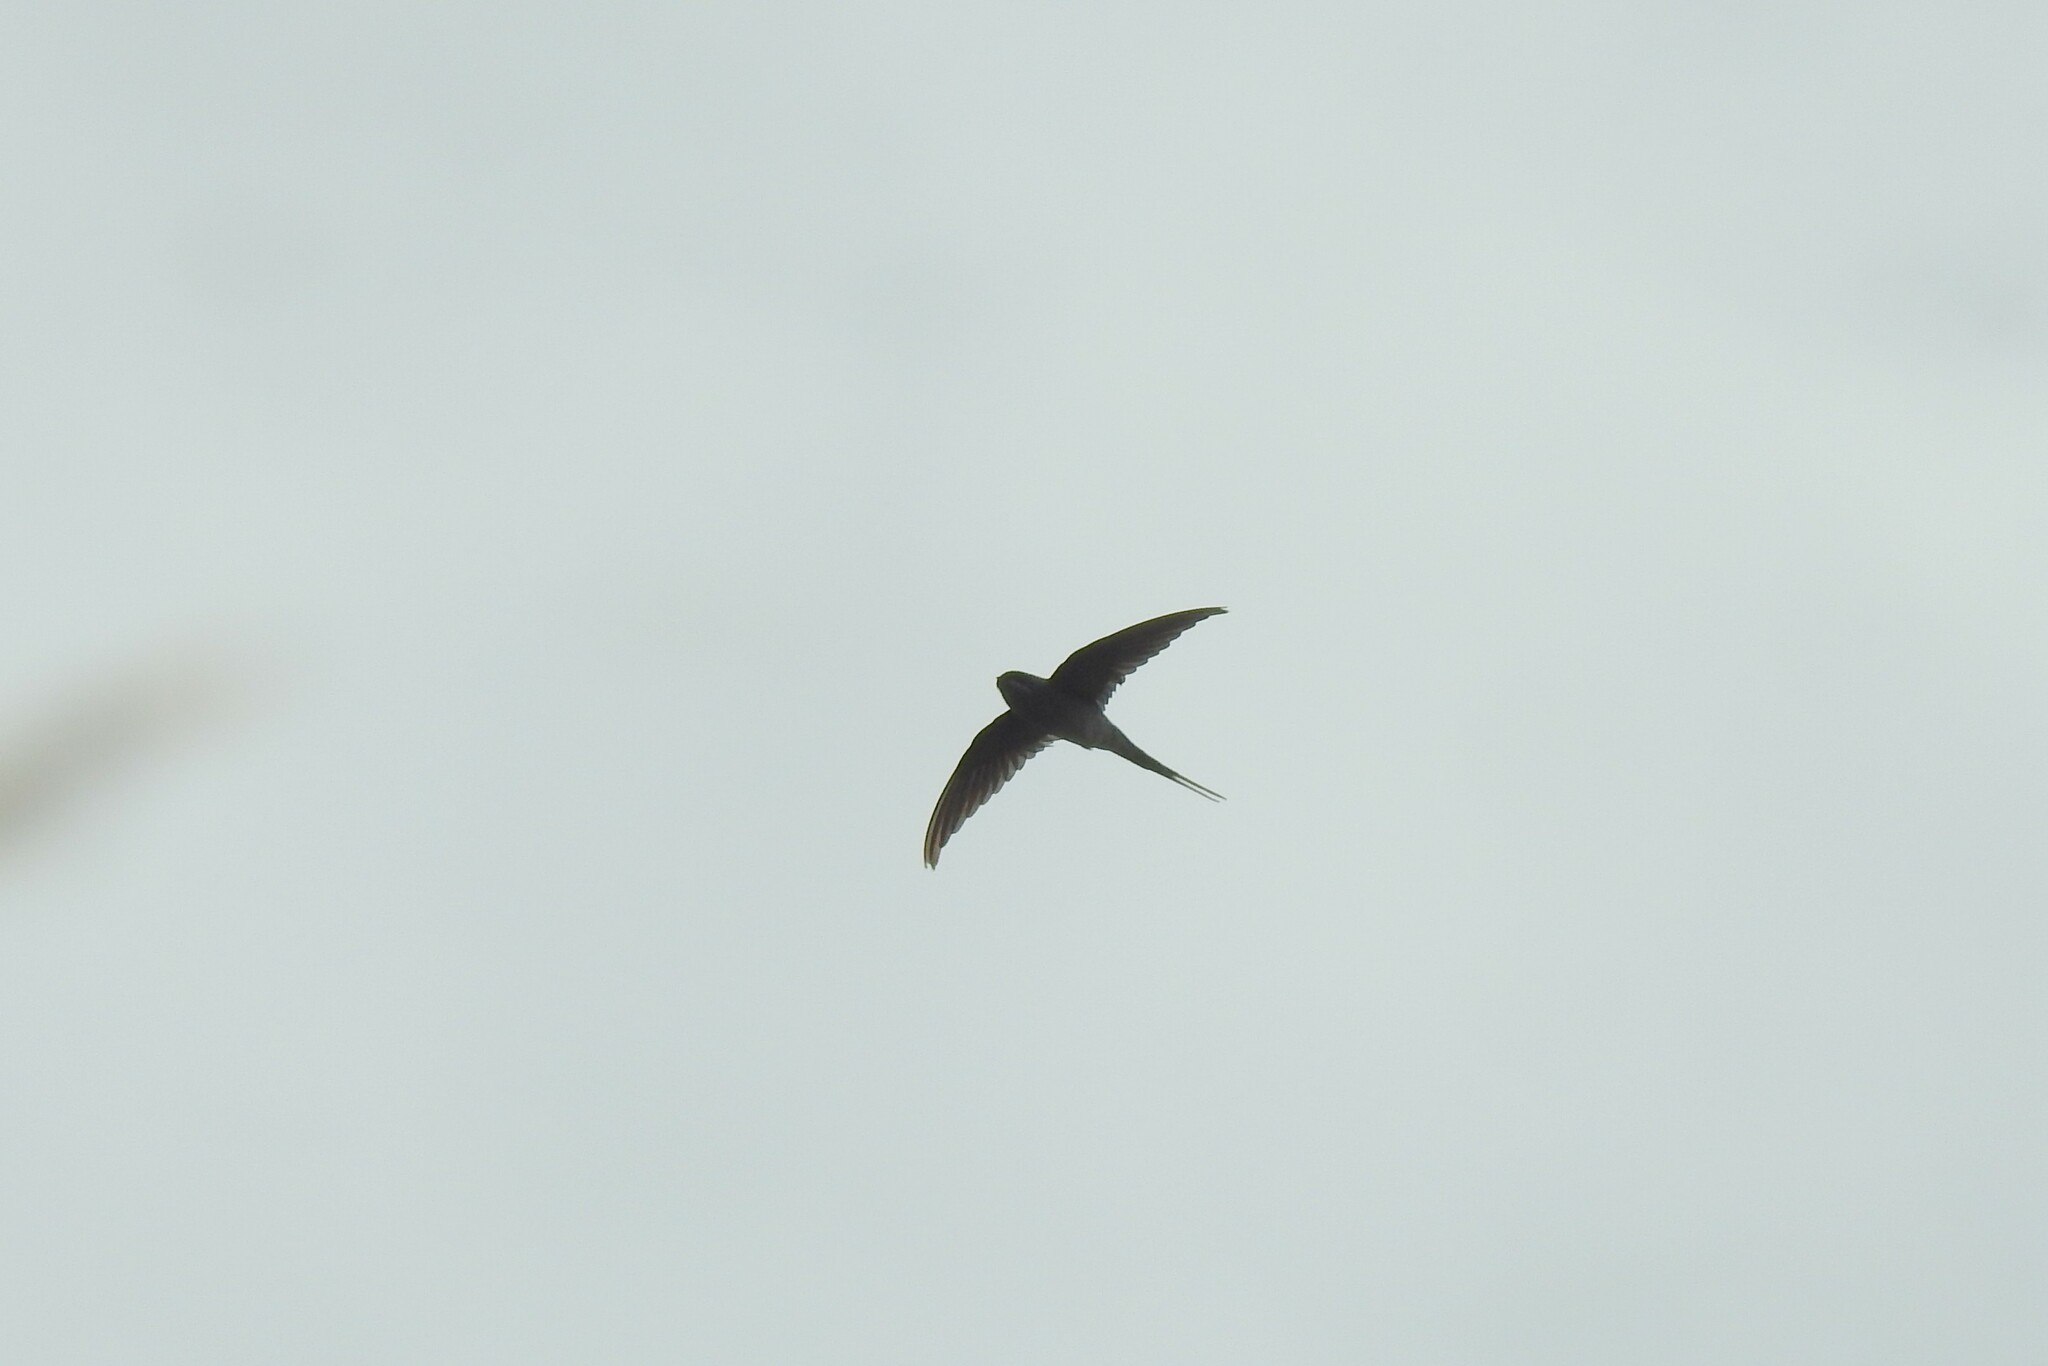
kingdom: Animalia
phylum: Chordata
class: Aves
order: Apodiformes
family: Hemiprocnidae
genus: Hemiprocne
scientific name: Hemiprocne coronata
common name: Crested treeswift
